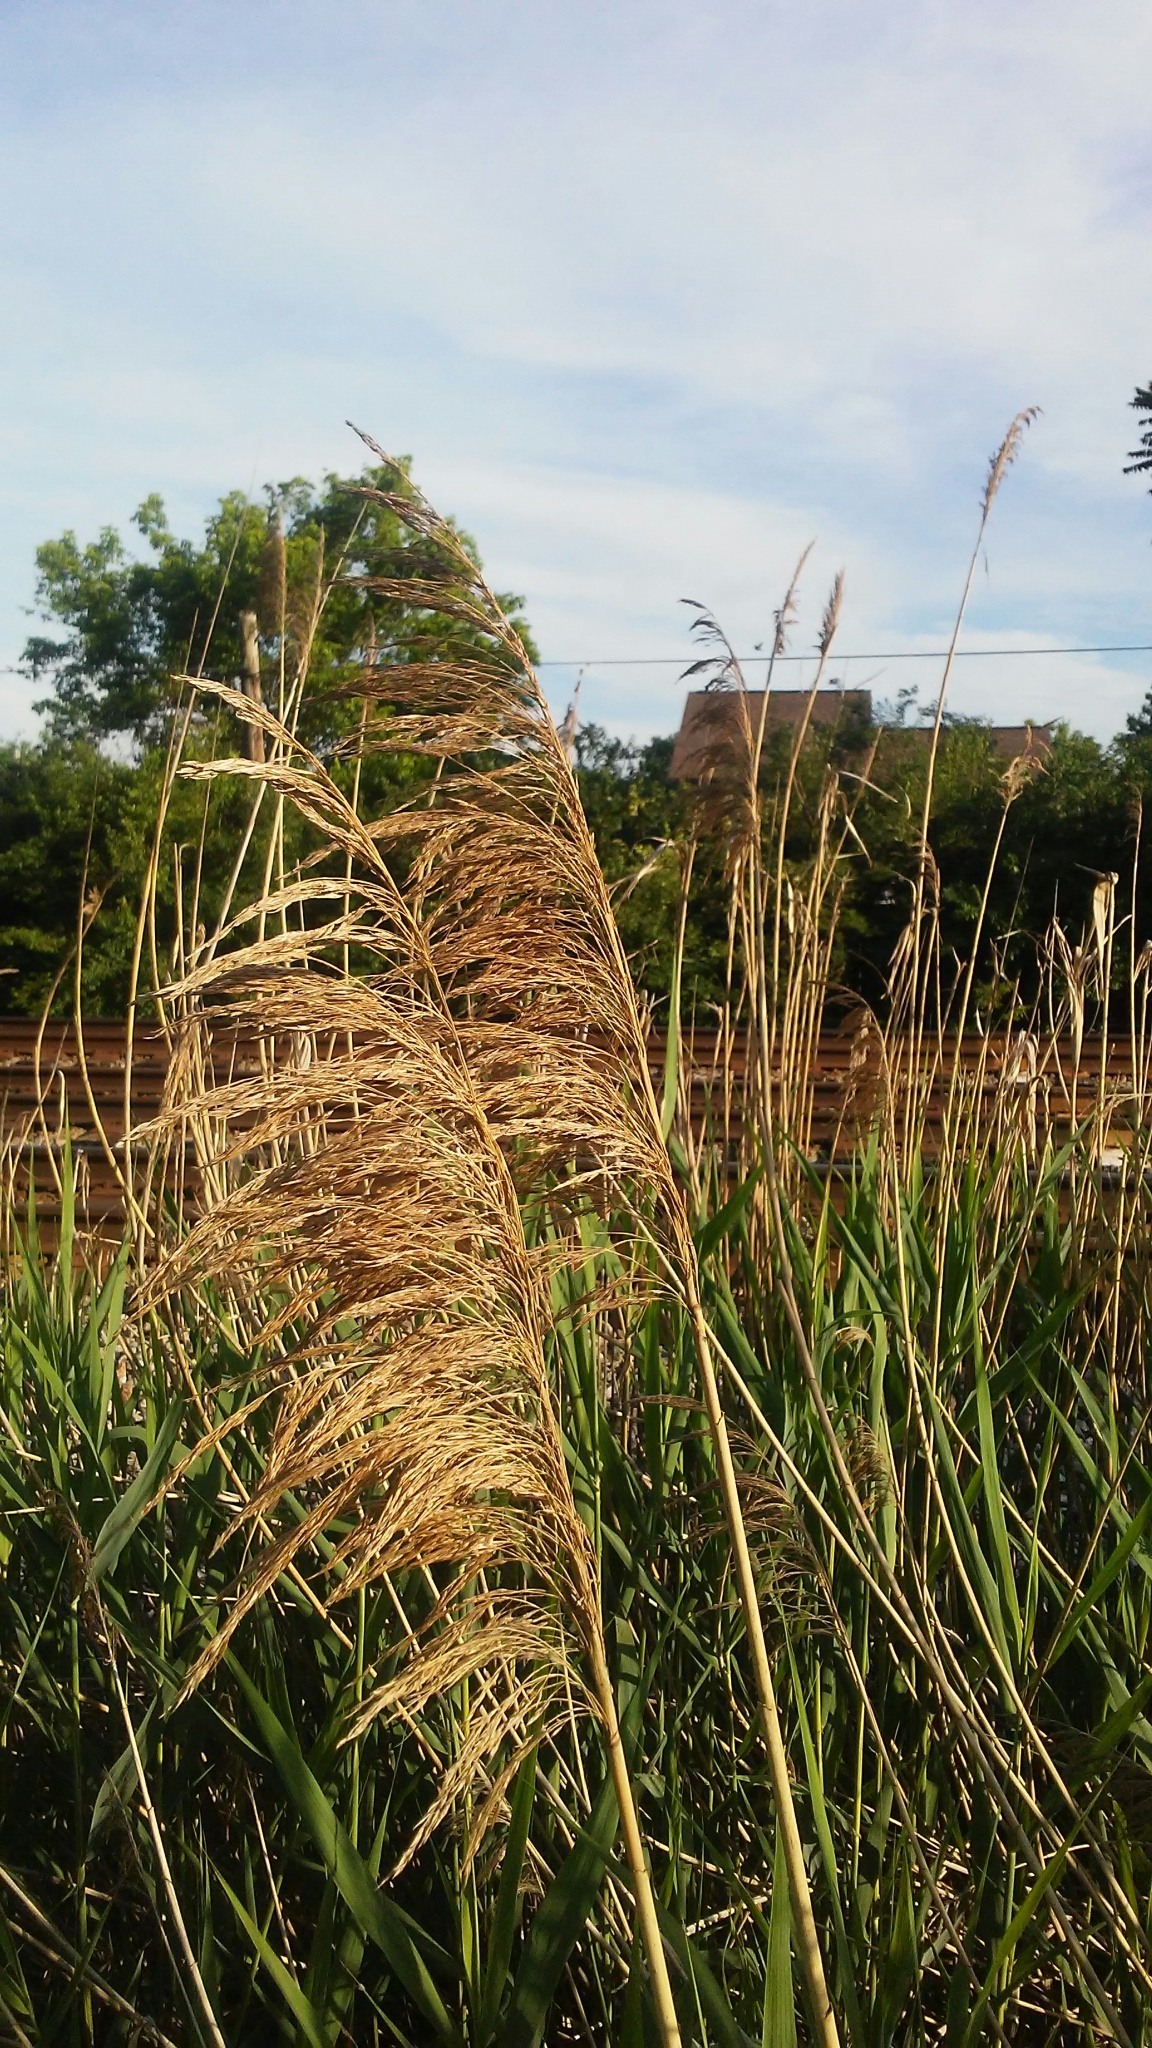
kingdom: Plantae
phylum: Tracheophyta
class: Liliopsida
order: Poales
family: Poaceae
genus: Phragmites
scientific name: Phragmites australis
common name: Common reed
